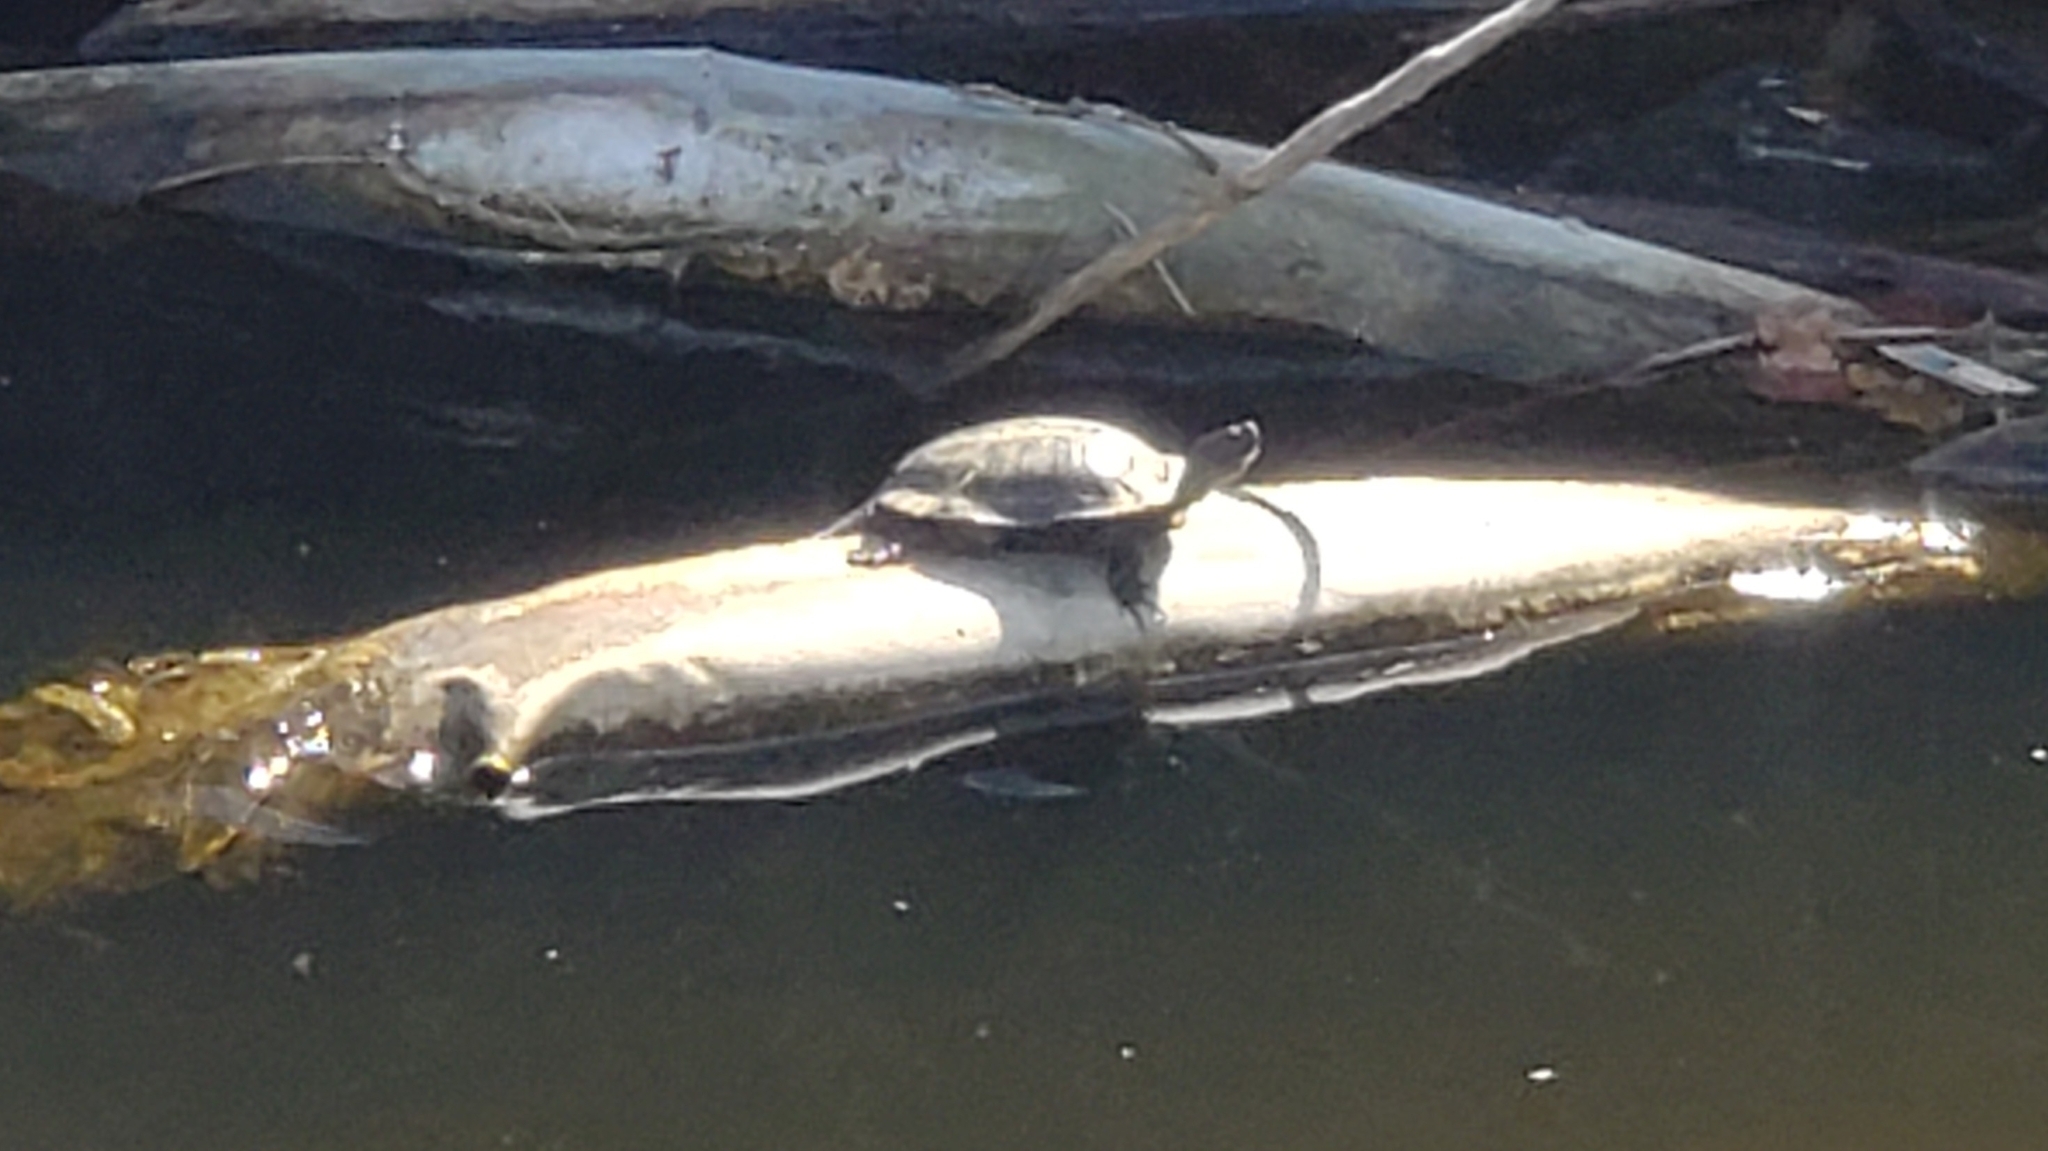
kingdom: Animalia
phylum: Chordata
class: Testudines
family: Emydidae
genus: Trachemys
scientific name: Trachemys scripta
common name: Slider
